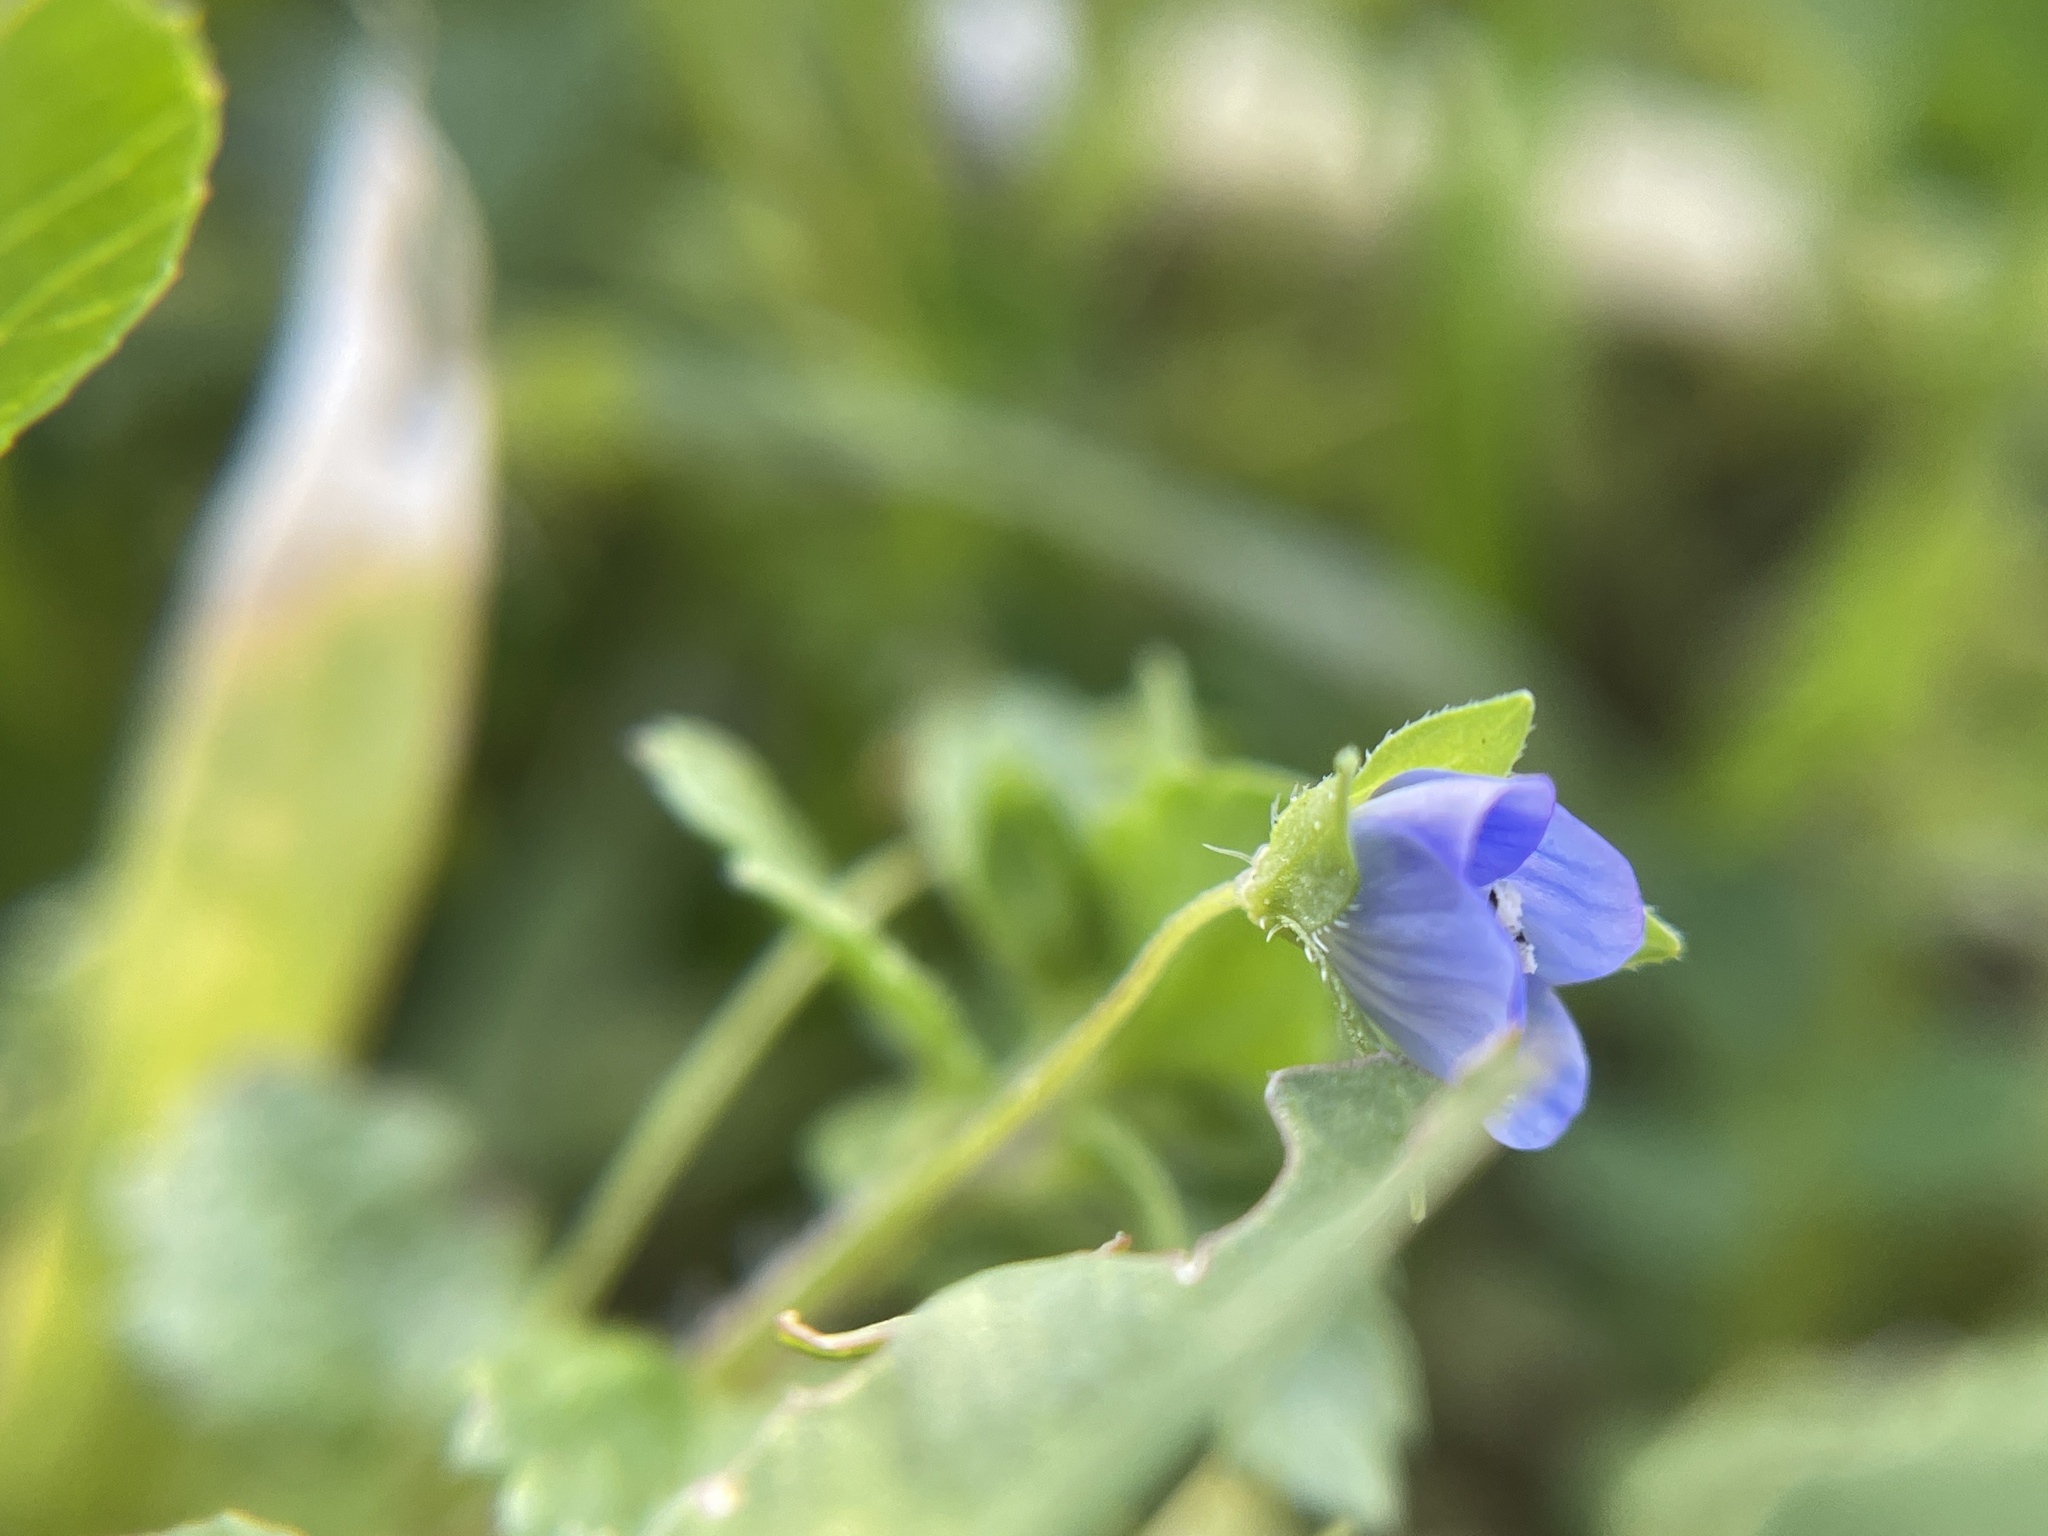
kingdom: Plantae
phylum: Tracheophyta
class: Magnoliopsida
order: Lamiales
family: Plantaginaceae
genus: Veronica
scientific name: Veronica persica
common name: Common field-speedwell
